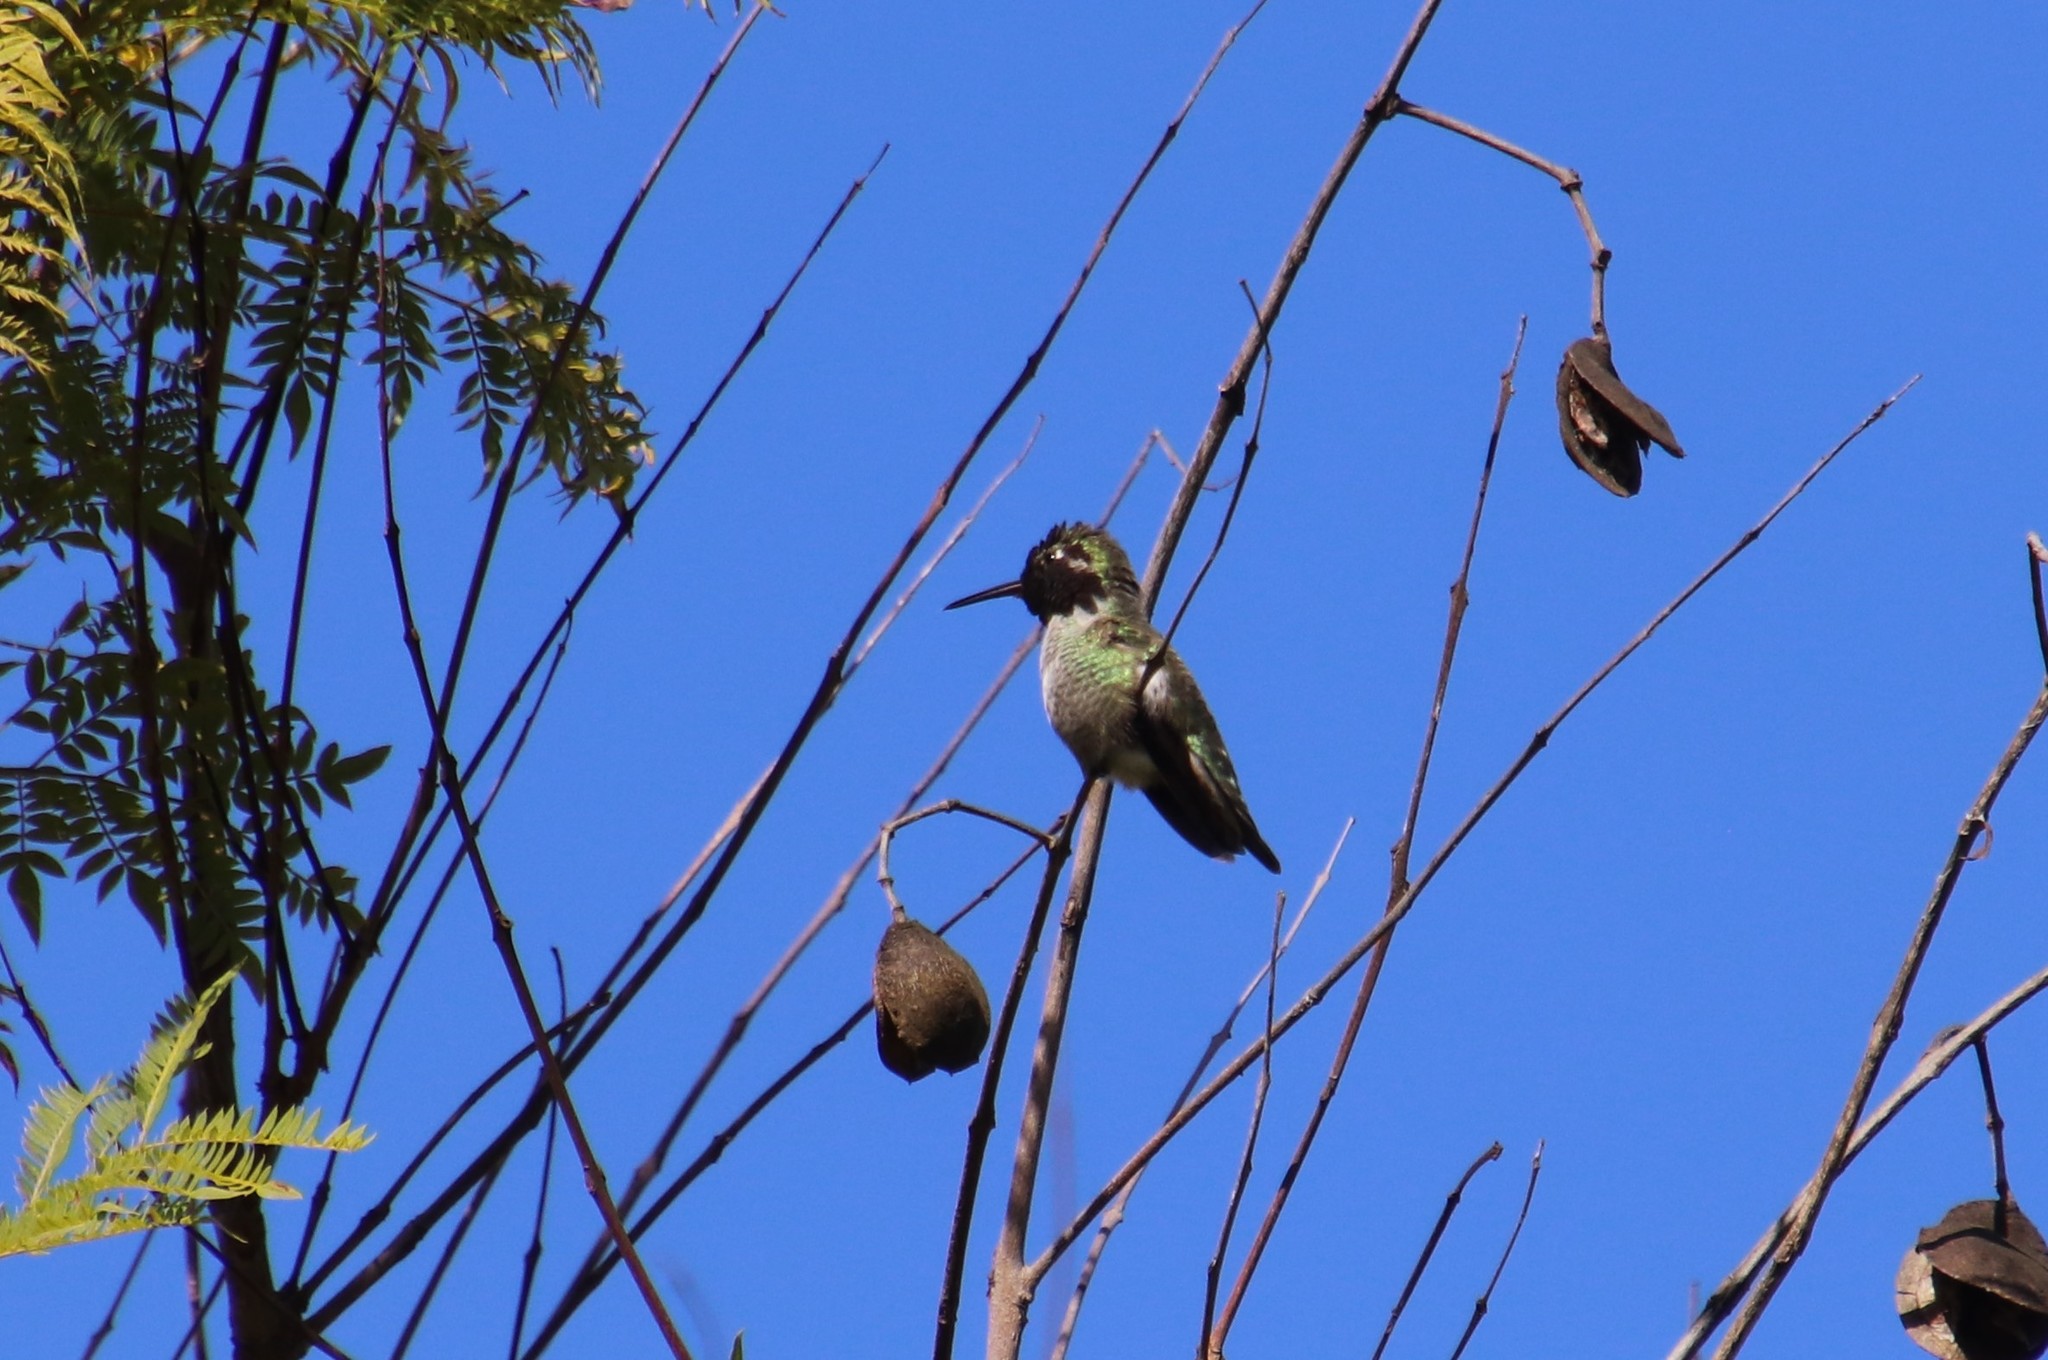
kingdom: Animalia
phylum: Chordata
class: Aves
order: Apodiformes
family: Trochilidae
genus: Calypte
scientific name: Calypte anna
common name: Anna's hummingbird
